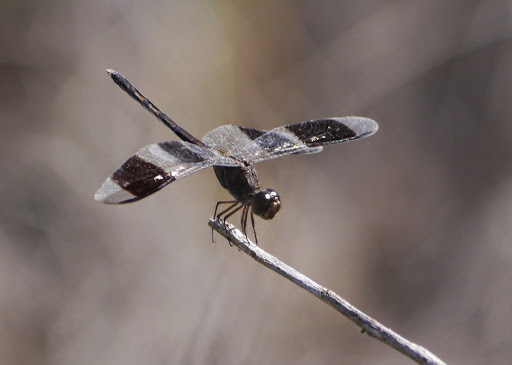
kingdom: Animalia
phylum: Arthropoda
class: Insecta
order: Odonata
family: Libellulidae
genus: Erythrodiplax
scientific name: Erythrodiplax umbrata
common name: Band-winged dragonlet
